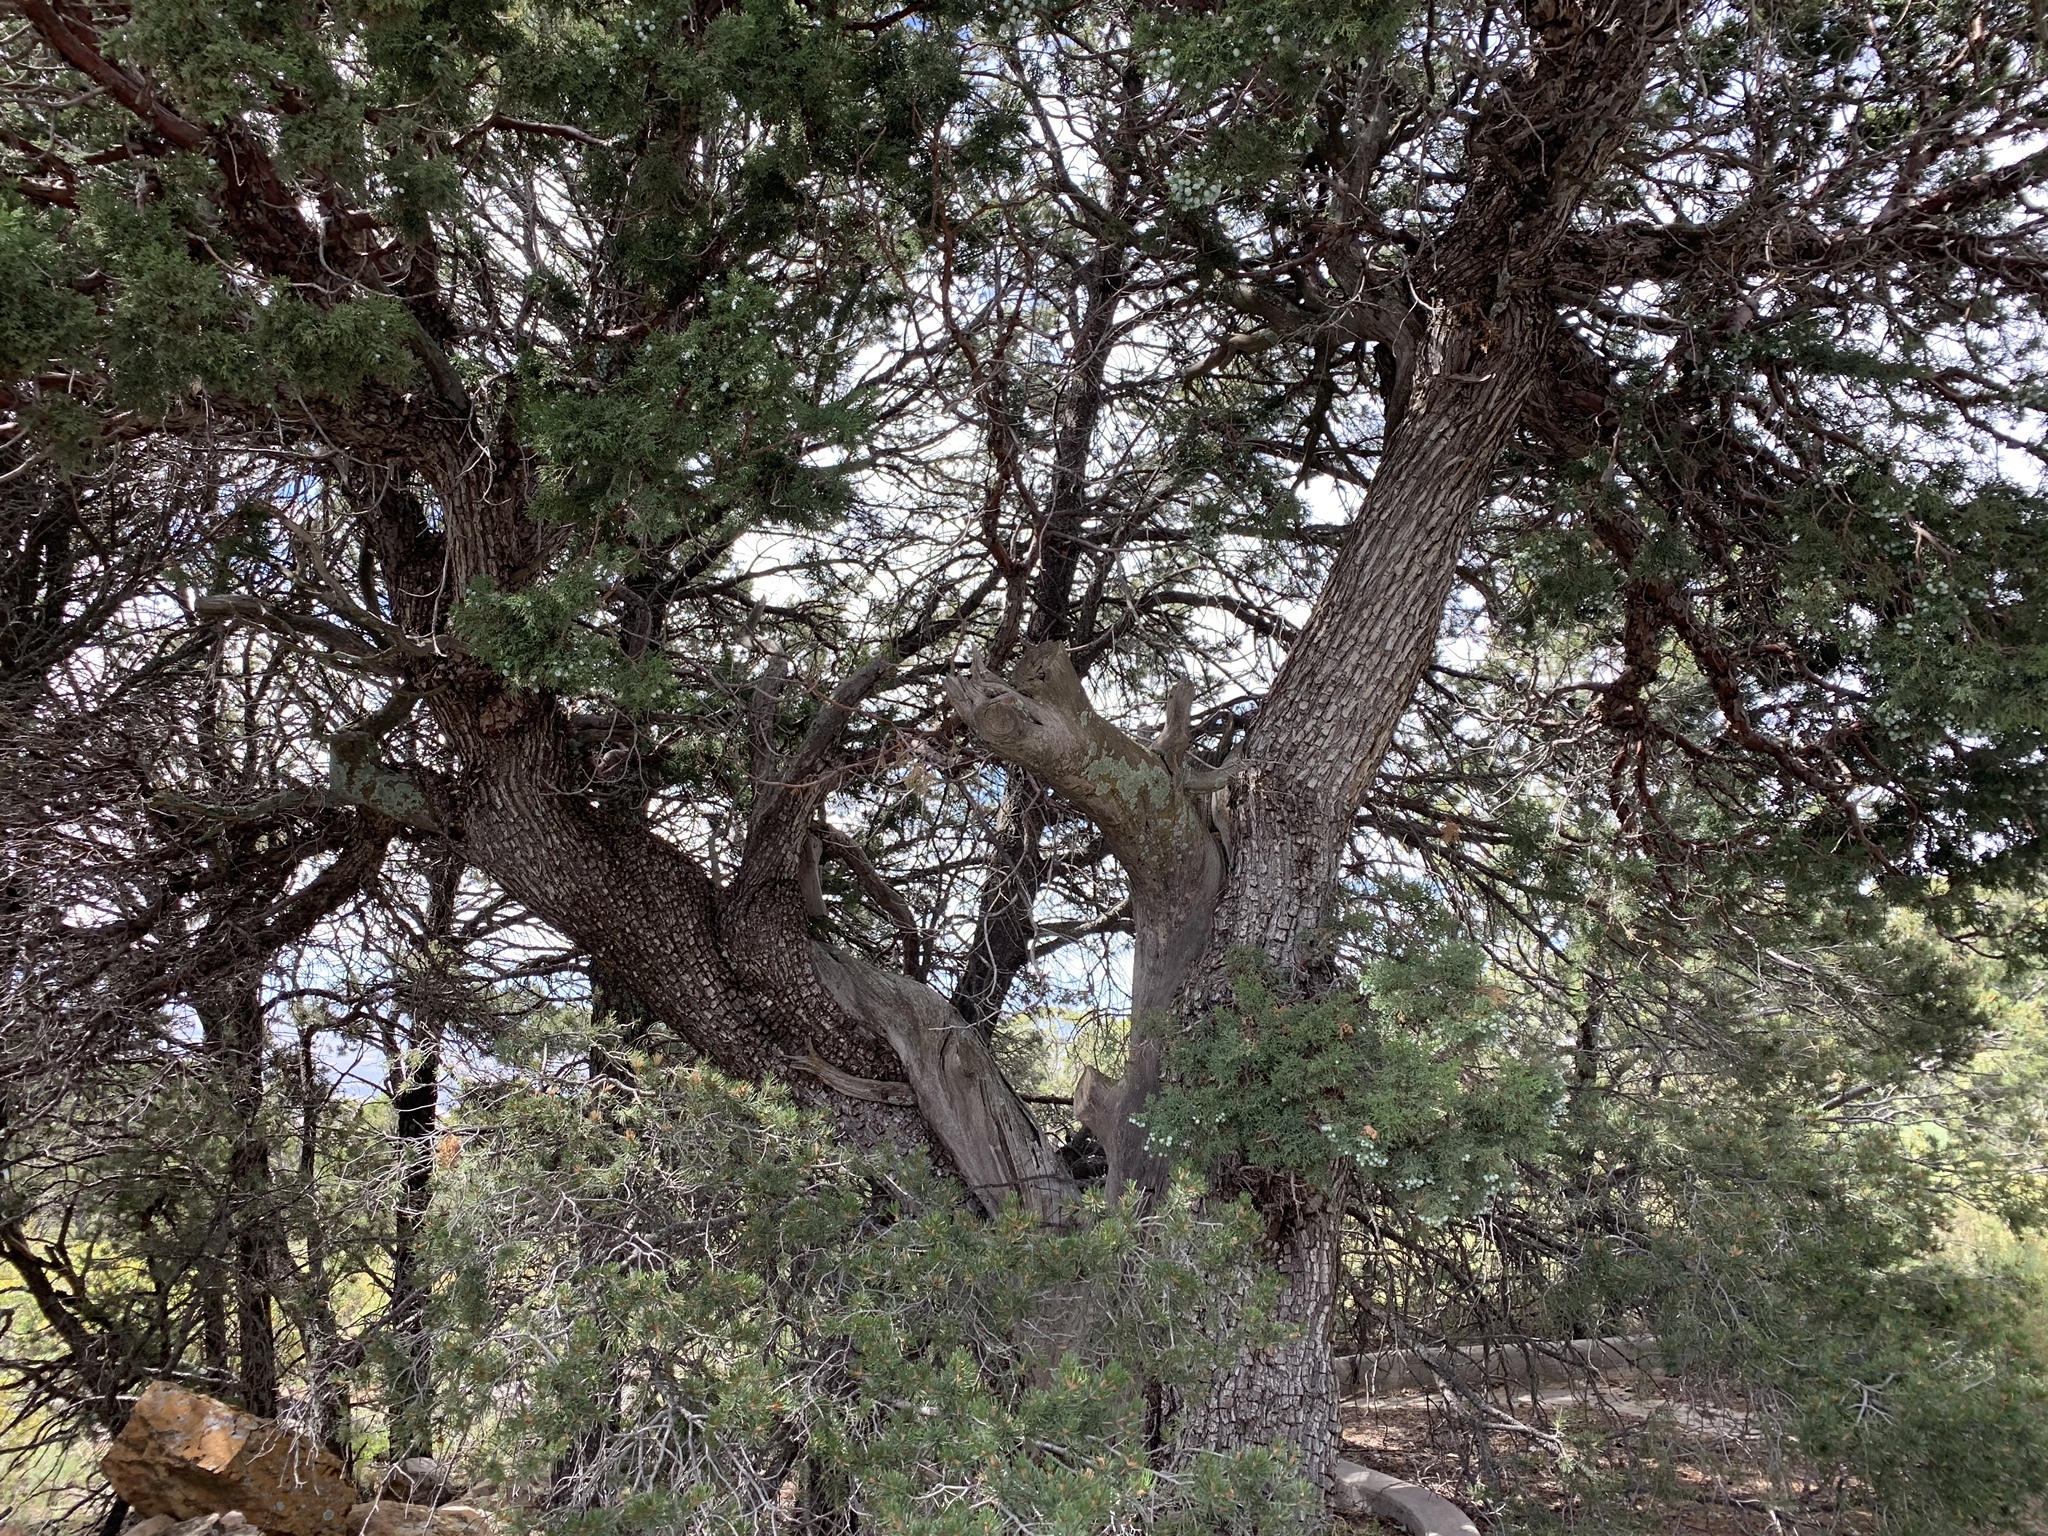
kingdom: Plantae
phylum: Tracheophyta
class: Pinopsida
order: Pinales
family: Cupressaceae
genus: Juniperus
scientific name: Juniperus deppeana
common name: Alligator juniper
